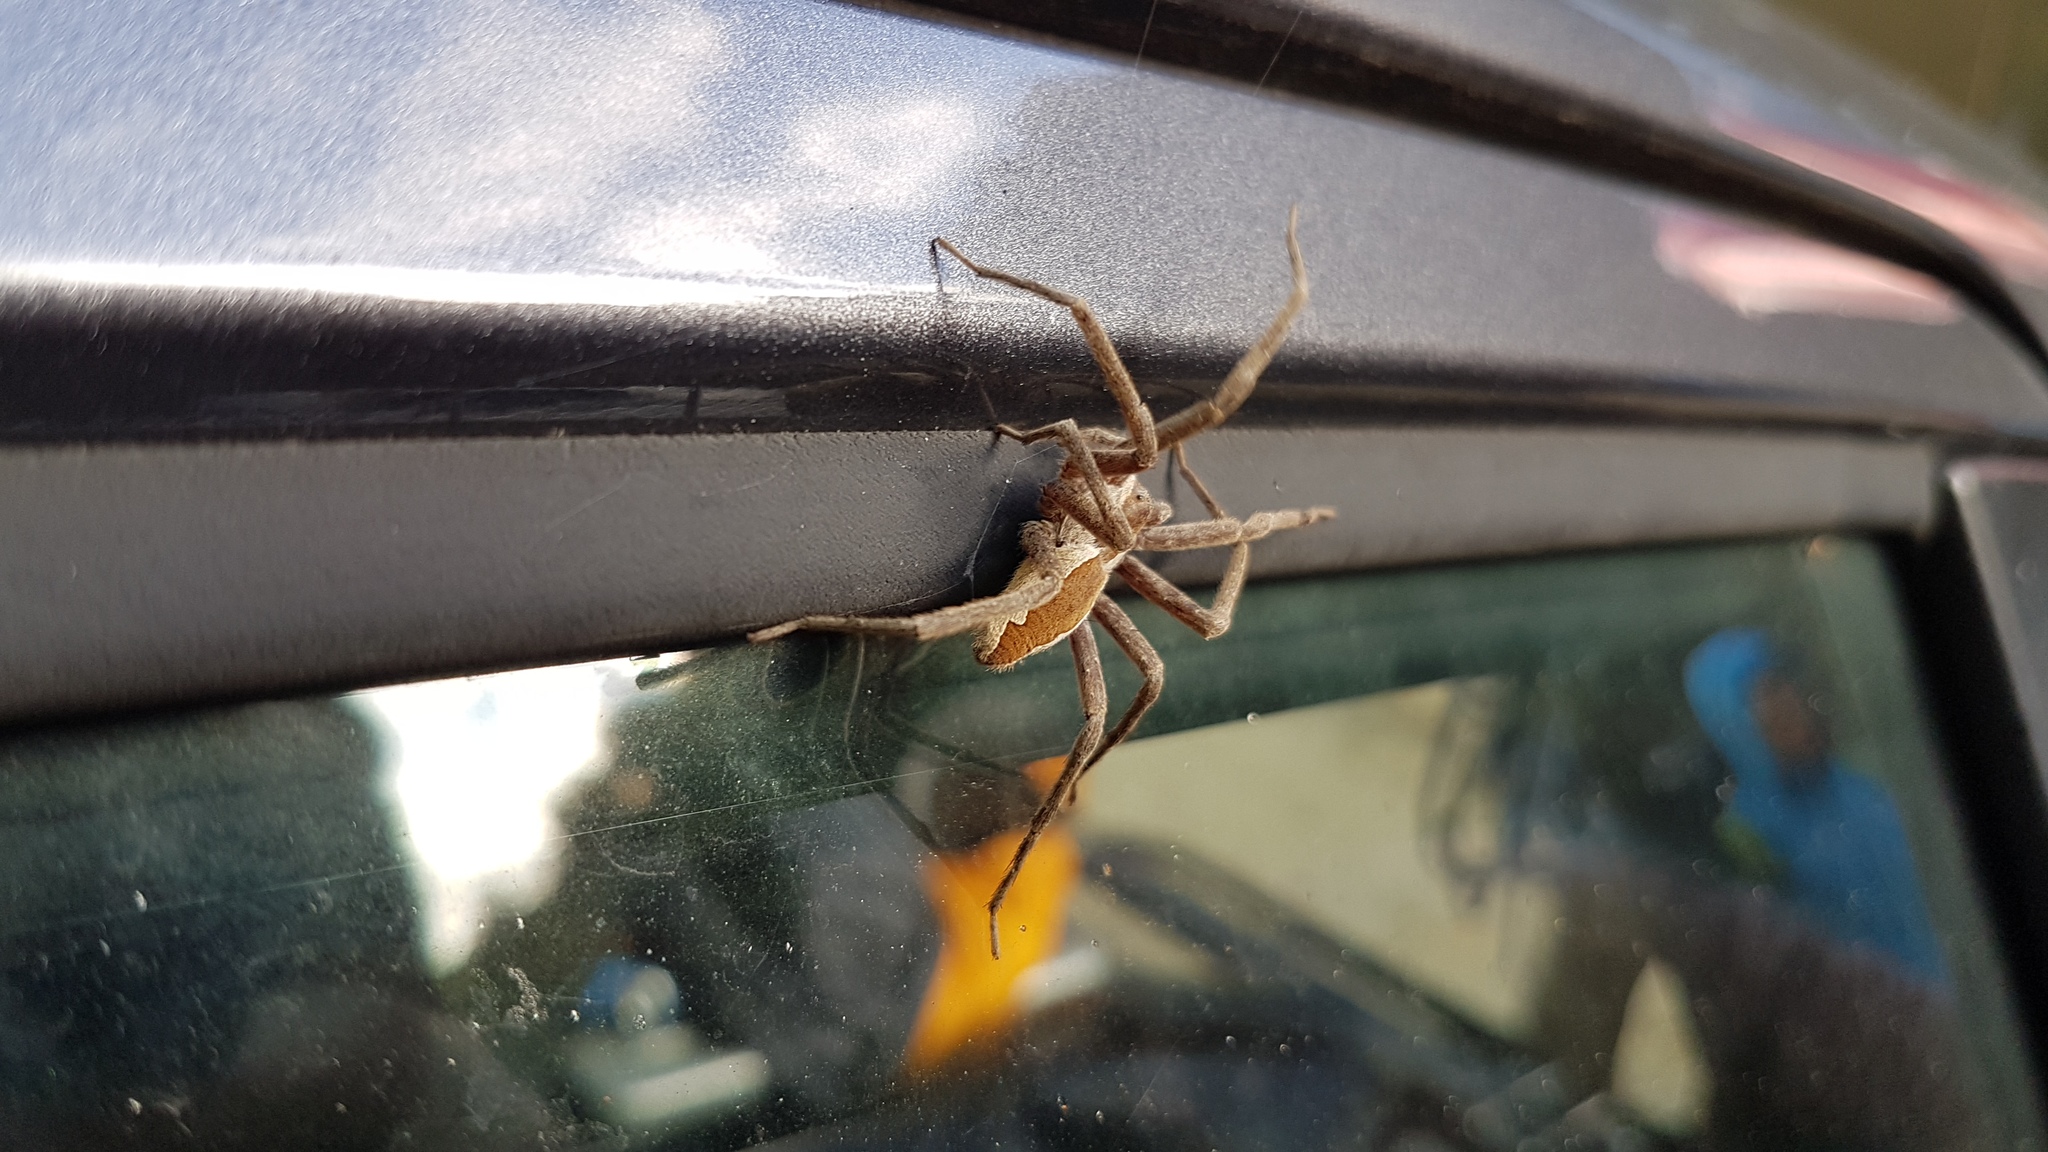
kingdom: Animalia
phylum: Arthropoda
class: Arachnida
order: Araneae
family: Pisauridae
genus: Pisaurina
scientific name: Pisaurina mira
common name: American nursery web spider
